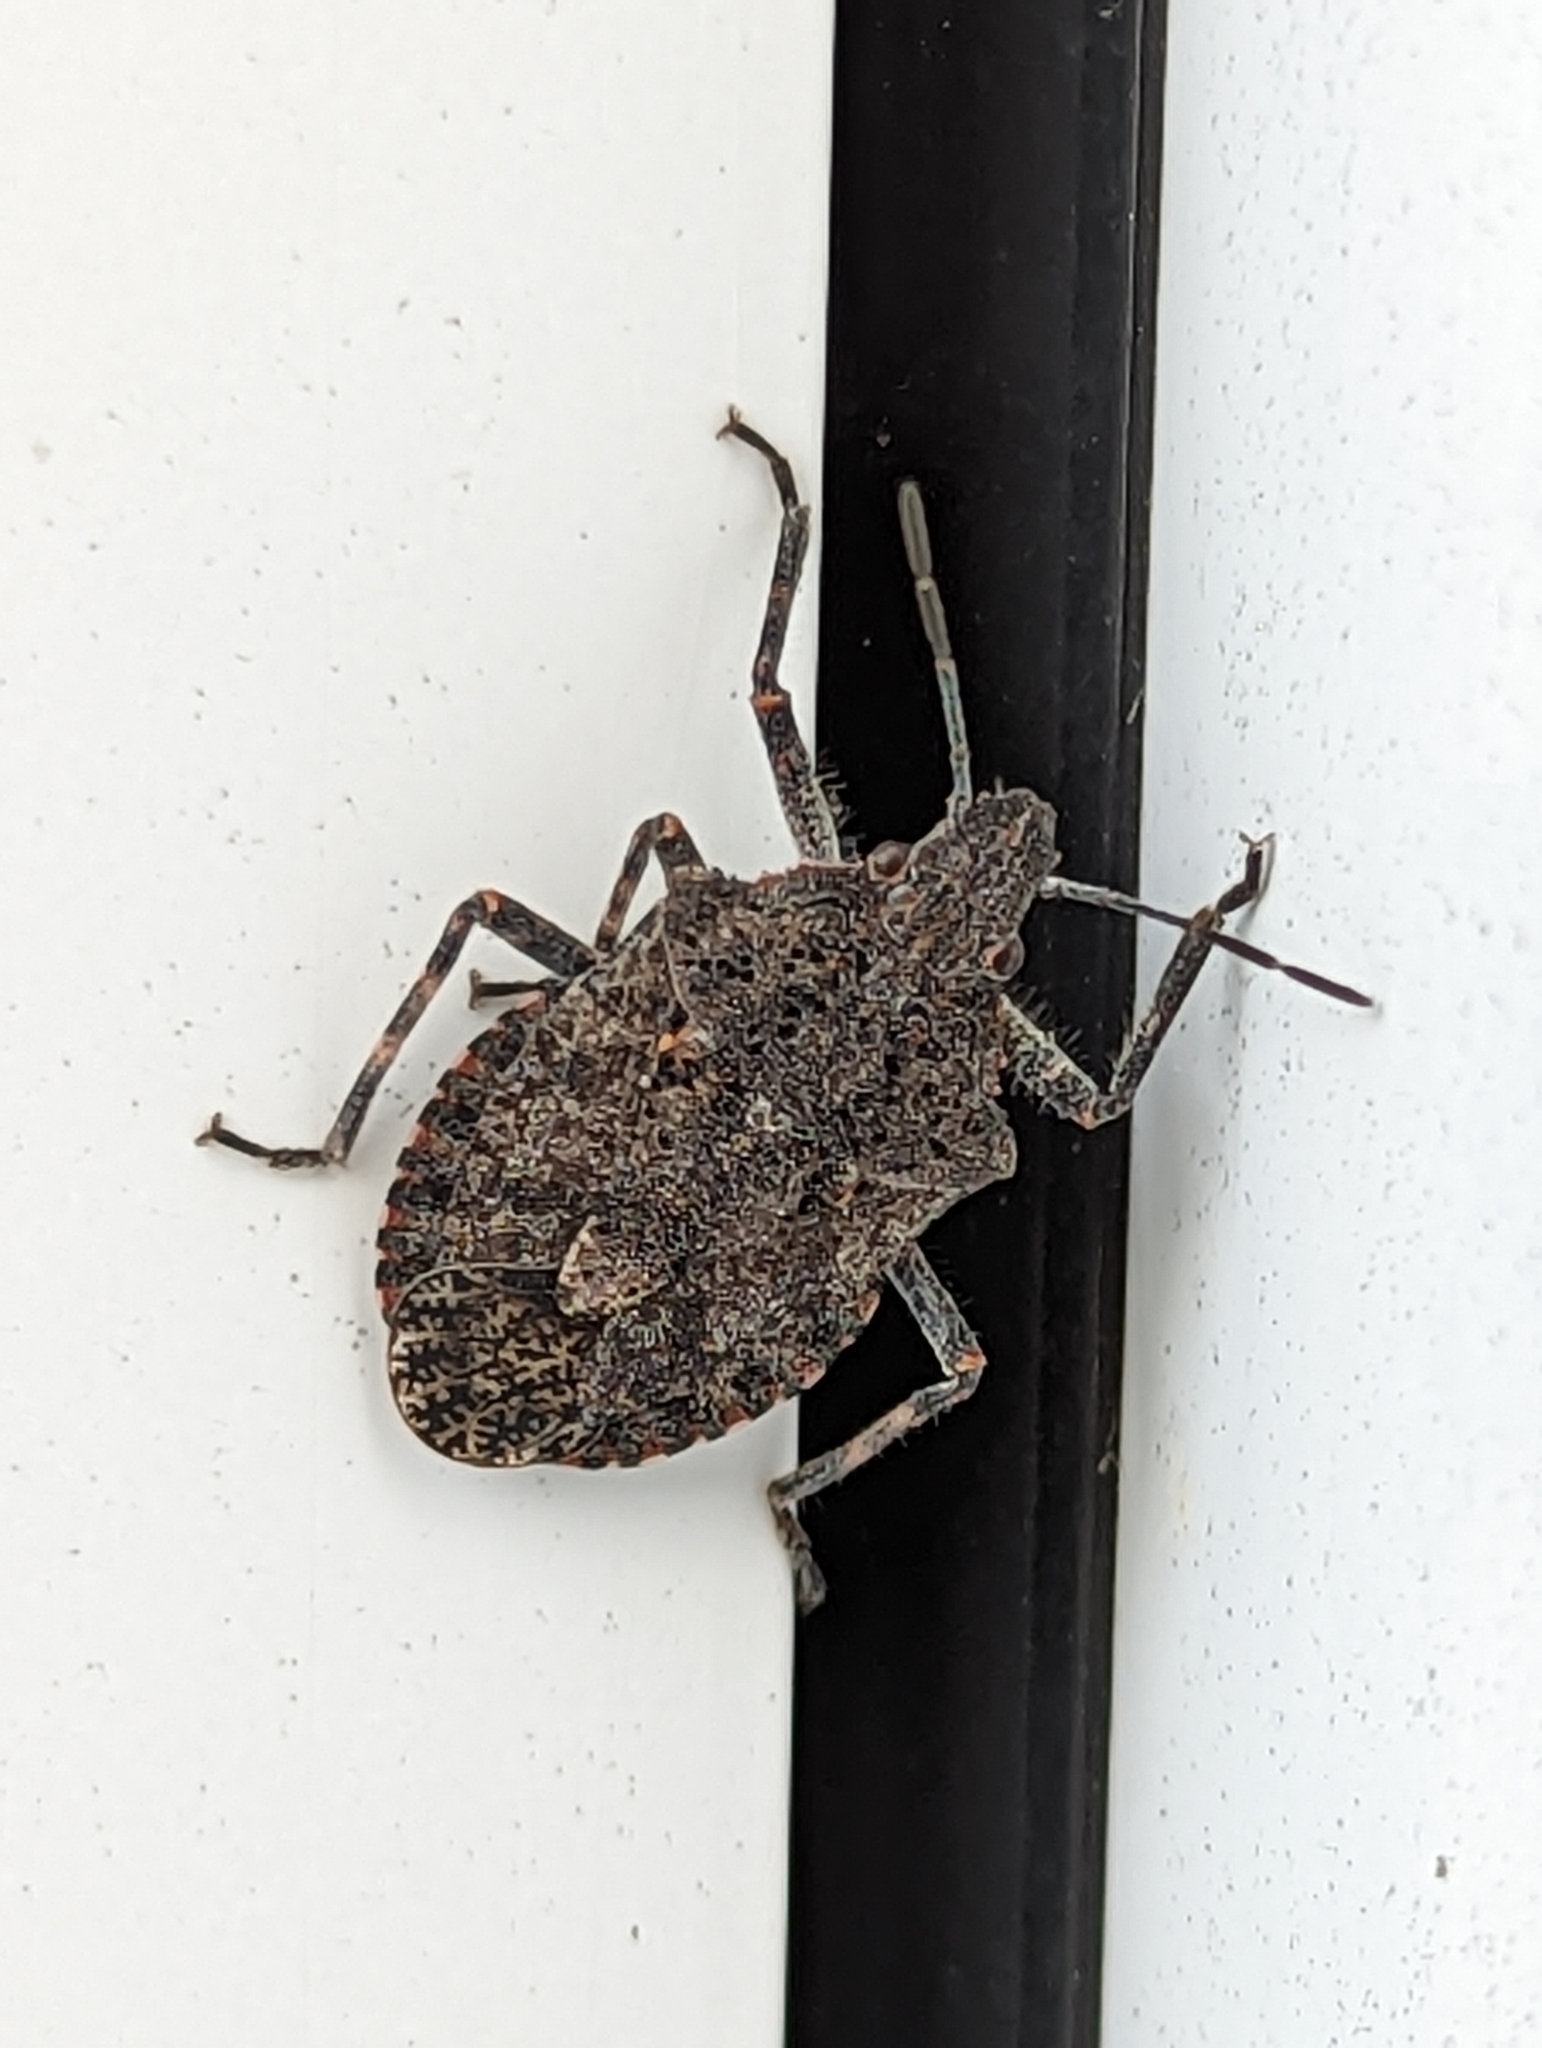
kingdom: Animalia
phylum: Arthropoda
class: Insecta
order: Hemiptera
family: Pentatomidae
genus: Brochymena
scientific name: Brochymena quadripustulata
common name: Four-humped stink bug
